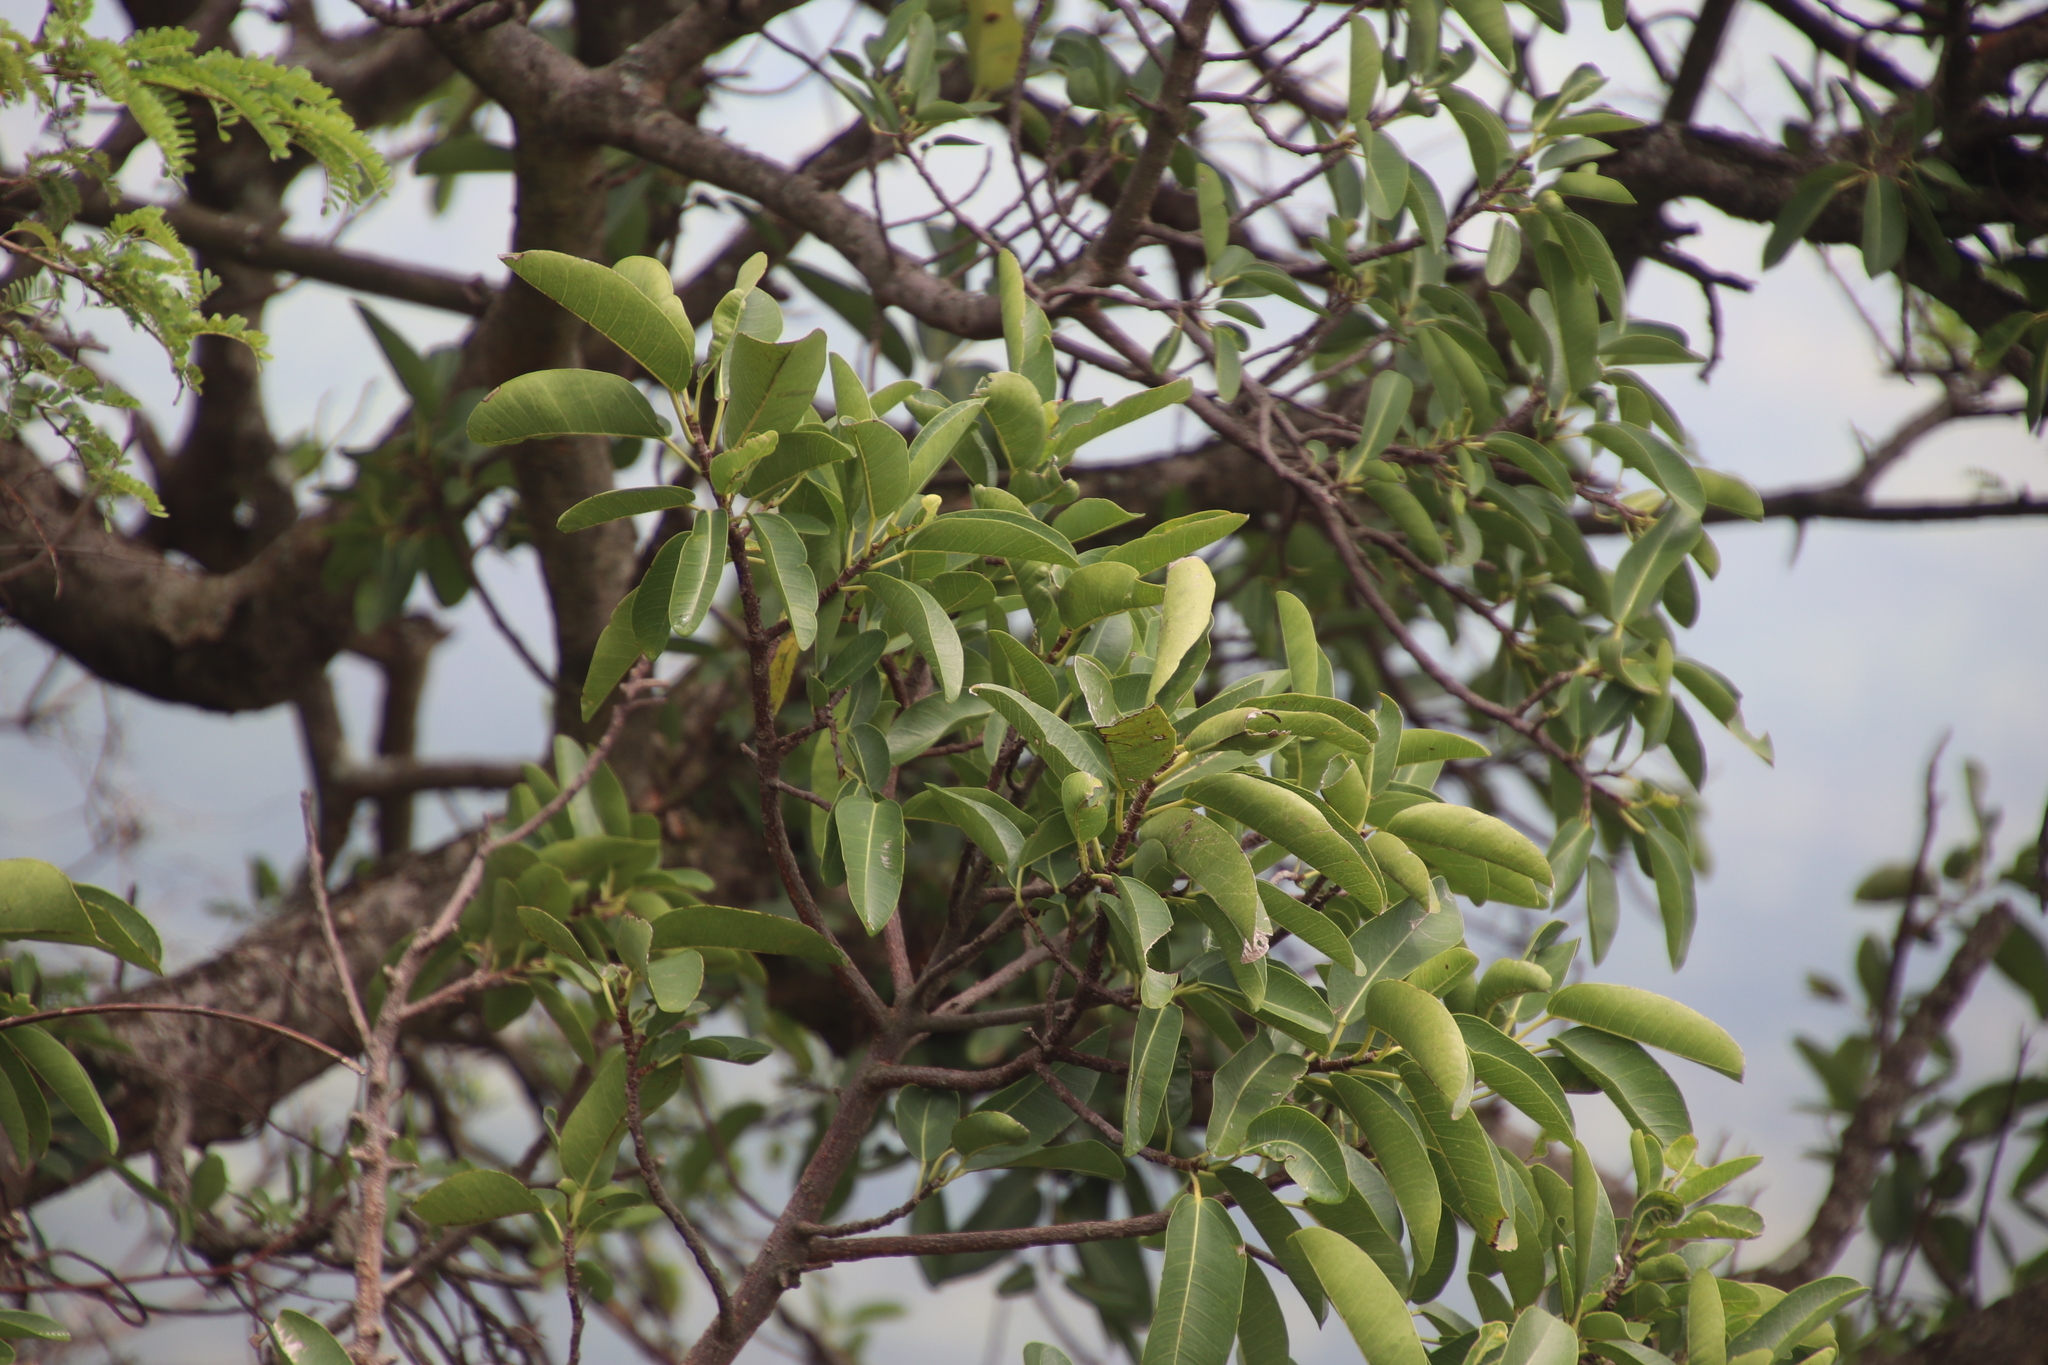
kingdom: Plantae
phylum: Tracheophyta
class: Magnoliopsida
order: Rosales
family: Moraceae
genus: Ficus
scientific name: Ficus salicifolia
